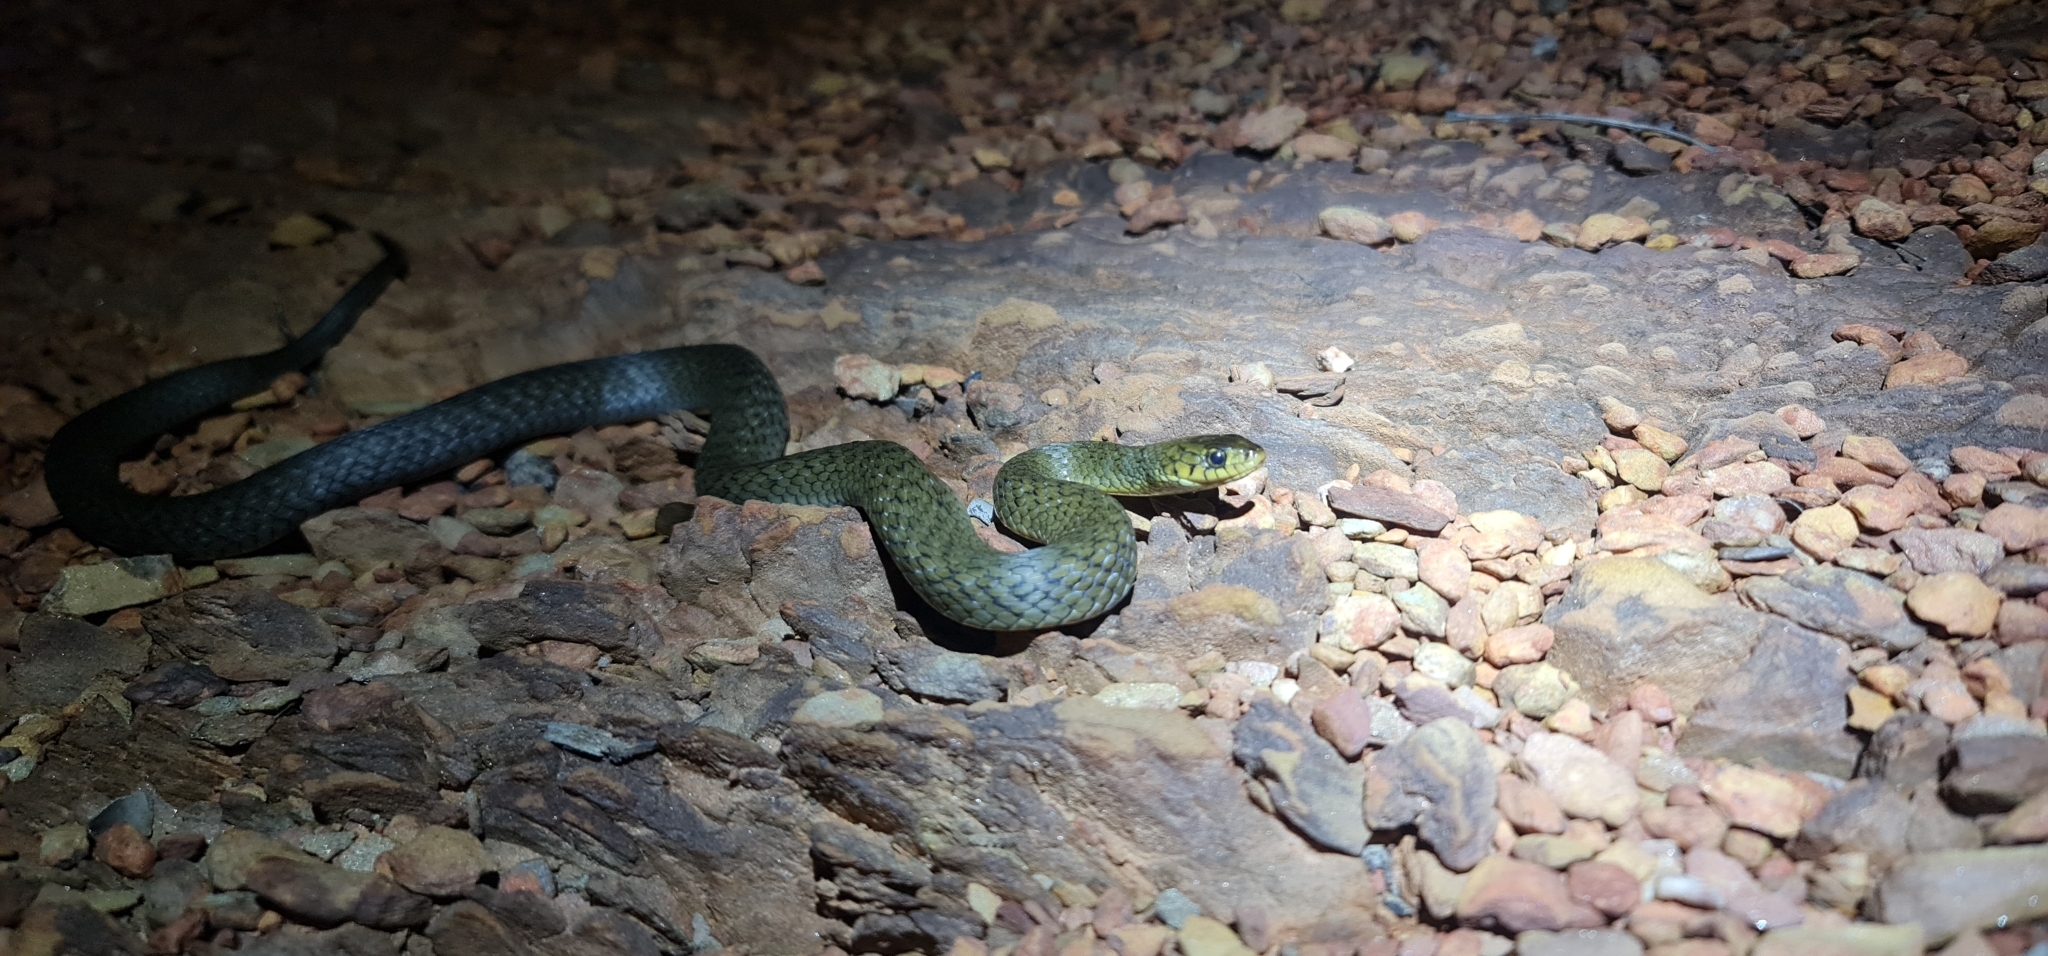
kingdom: Animalia
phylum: Chordata
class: Squamata
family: Colubridae
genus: Tropidonophis
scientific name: Tropidonophis mairii
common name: Common keelback
